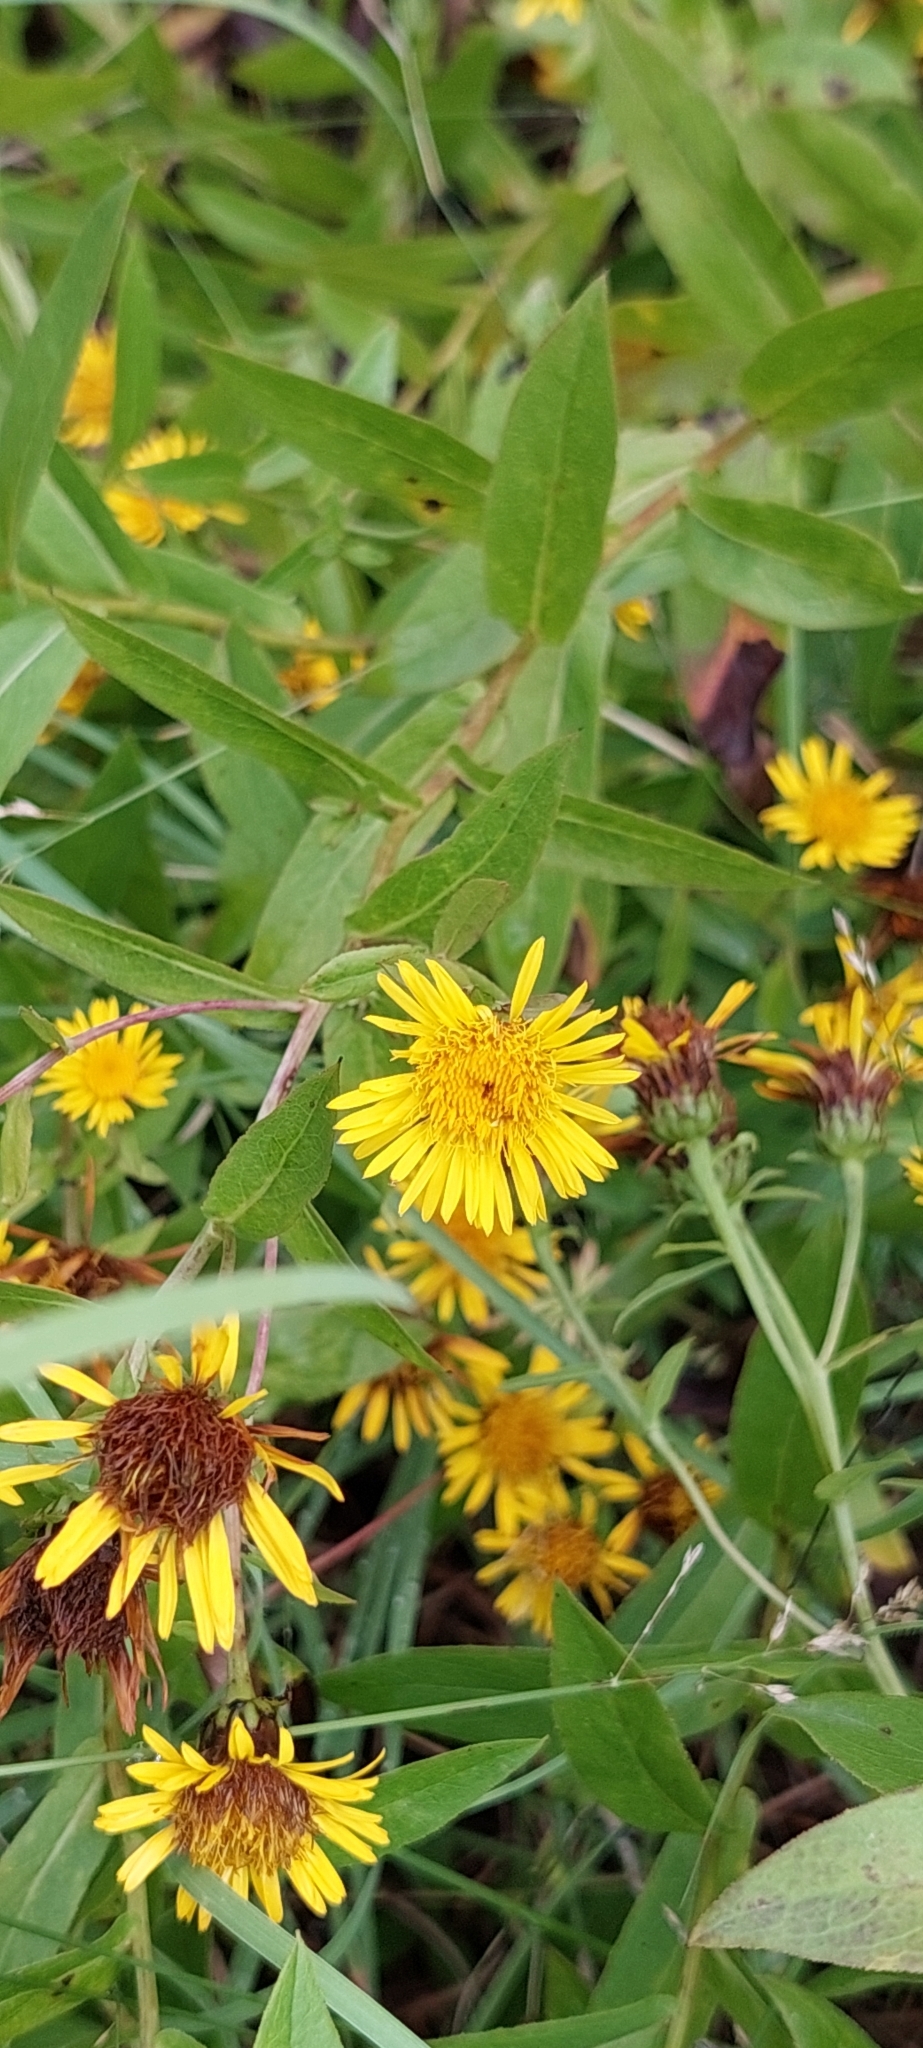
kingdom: Plantae
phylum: Tracheophyta
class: Magnoliopsida
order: Asterales
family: Asteraceae
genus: Pentanema
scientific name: Pentanema asperum
